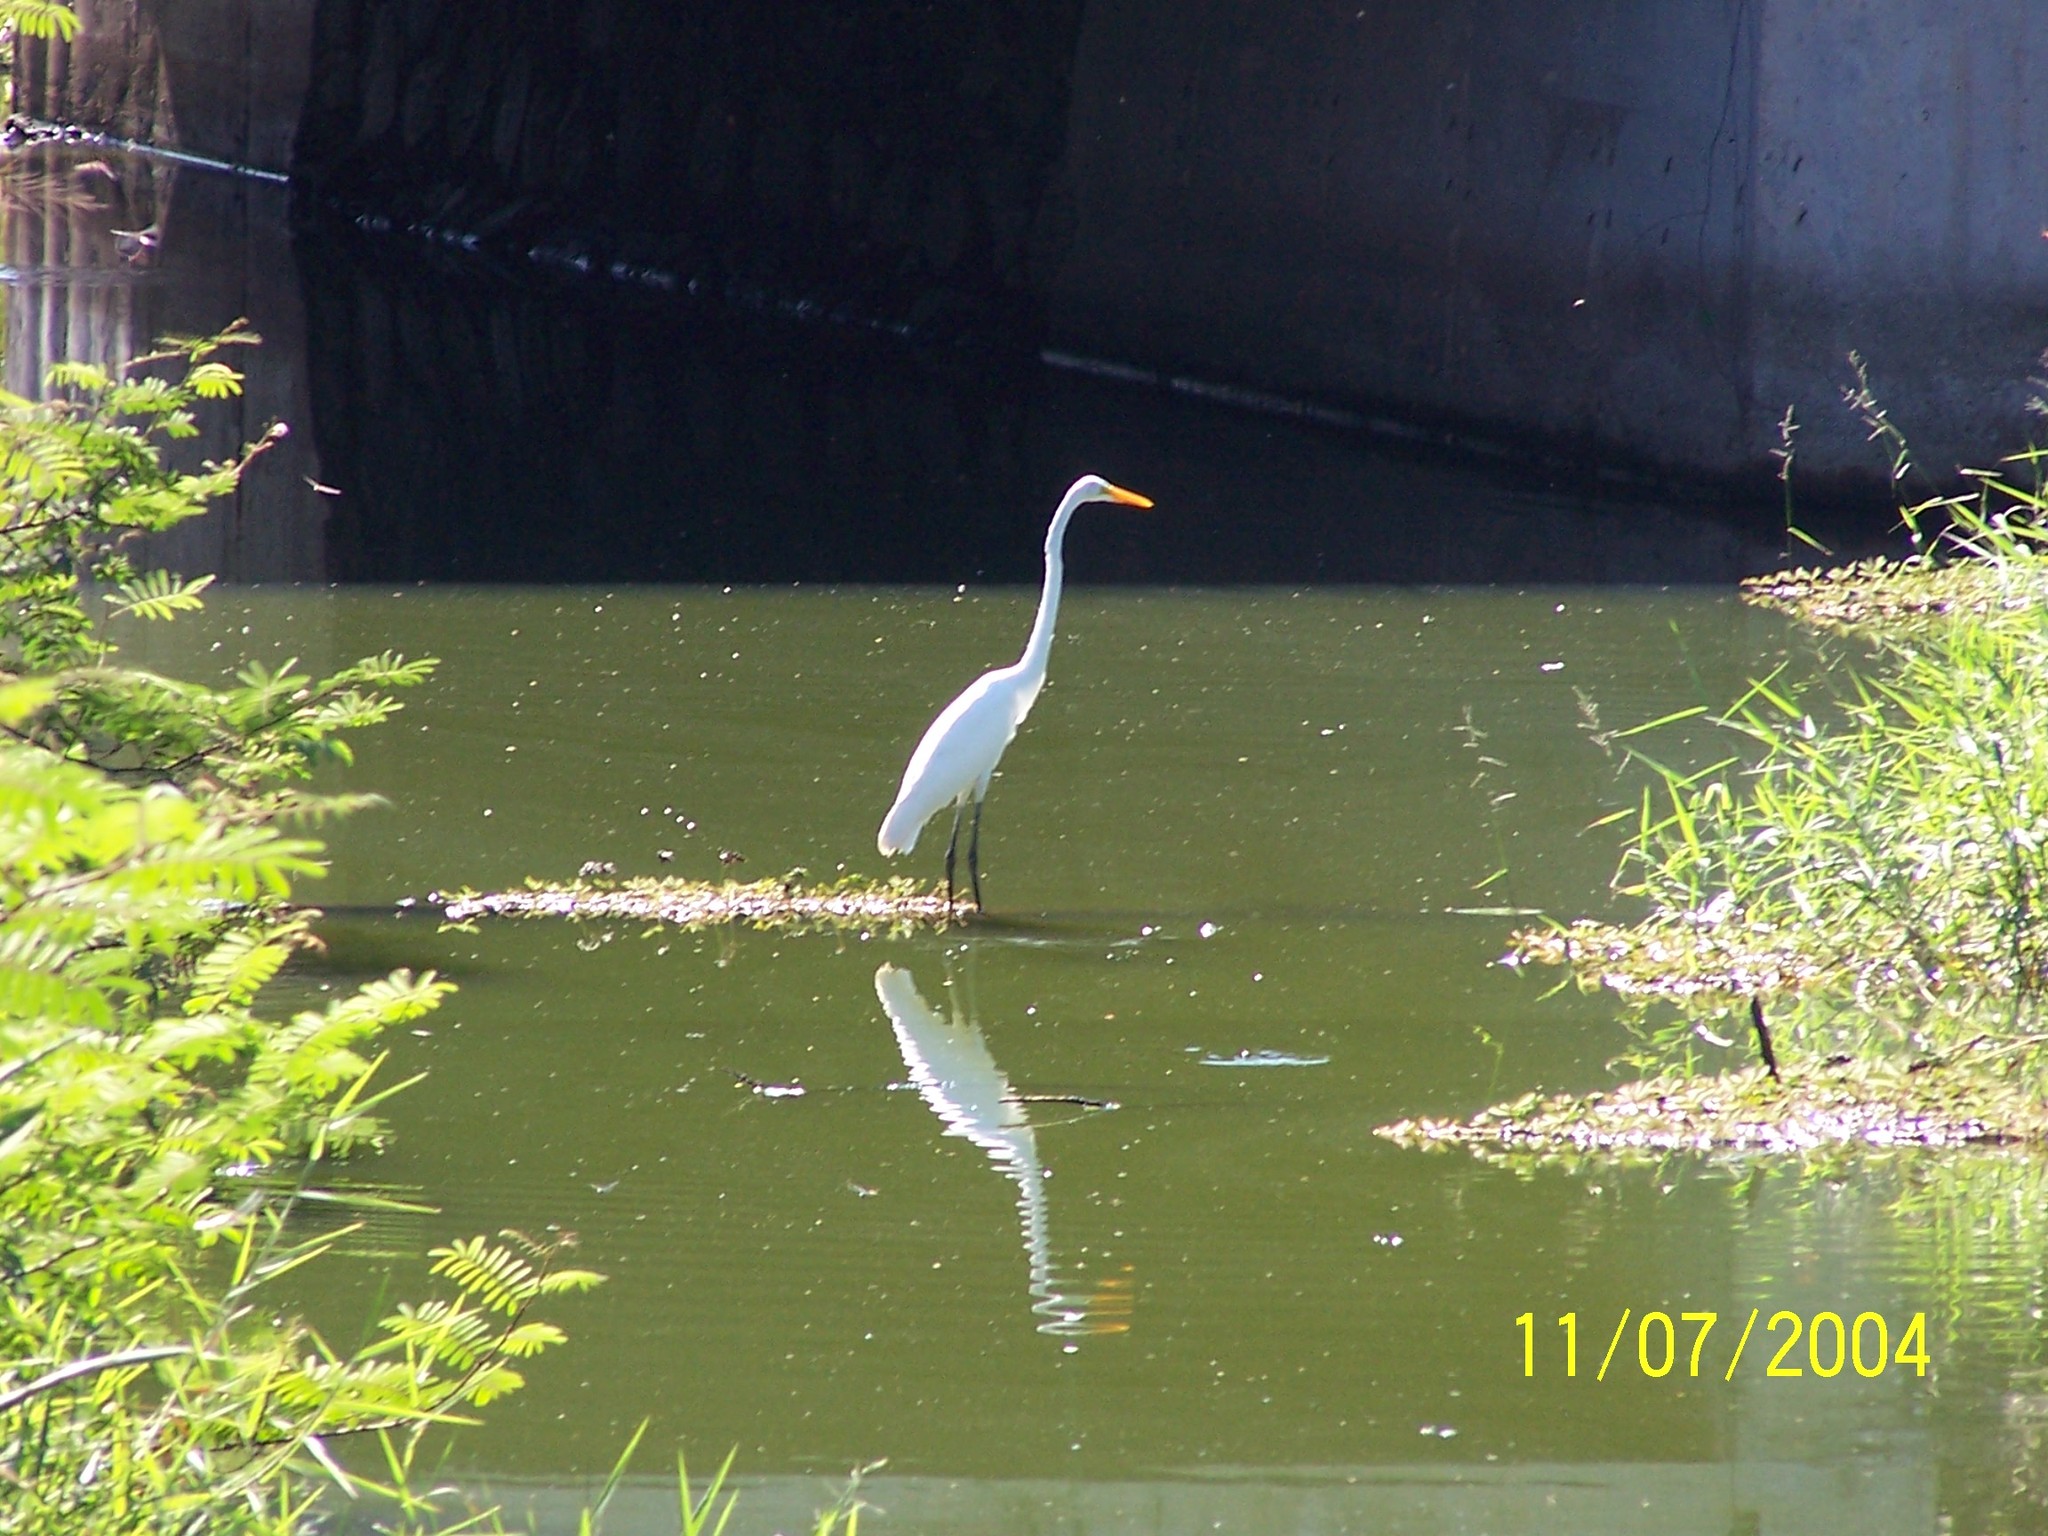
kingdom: Animalia
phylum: Chordata
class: Aves
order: Pelecaniformes
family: Ardeidae
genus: Ardea
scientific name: Ardea alba
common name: Great egret
